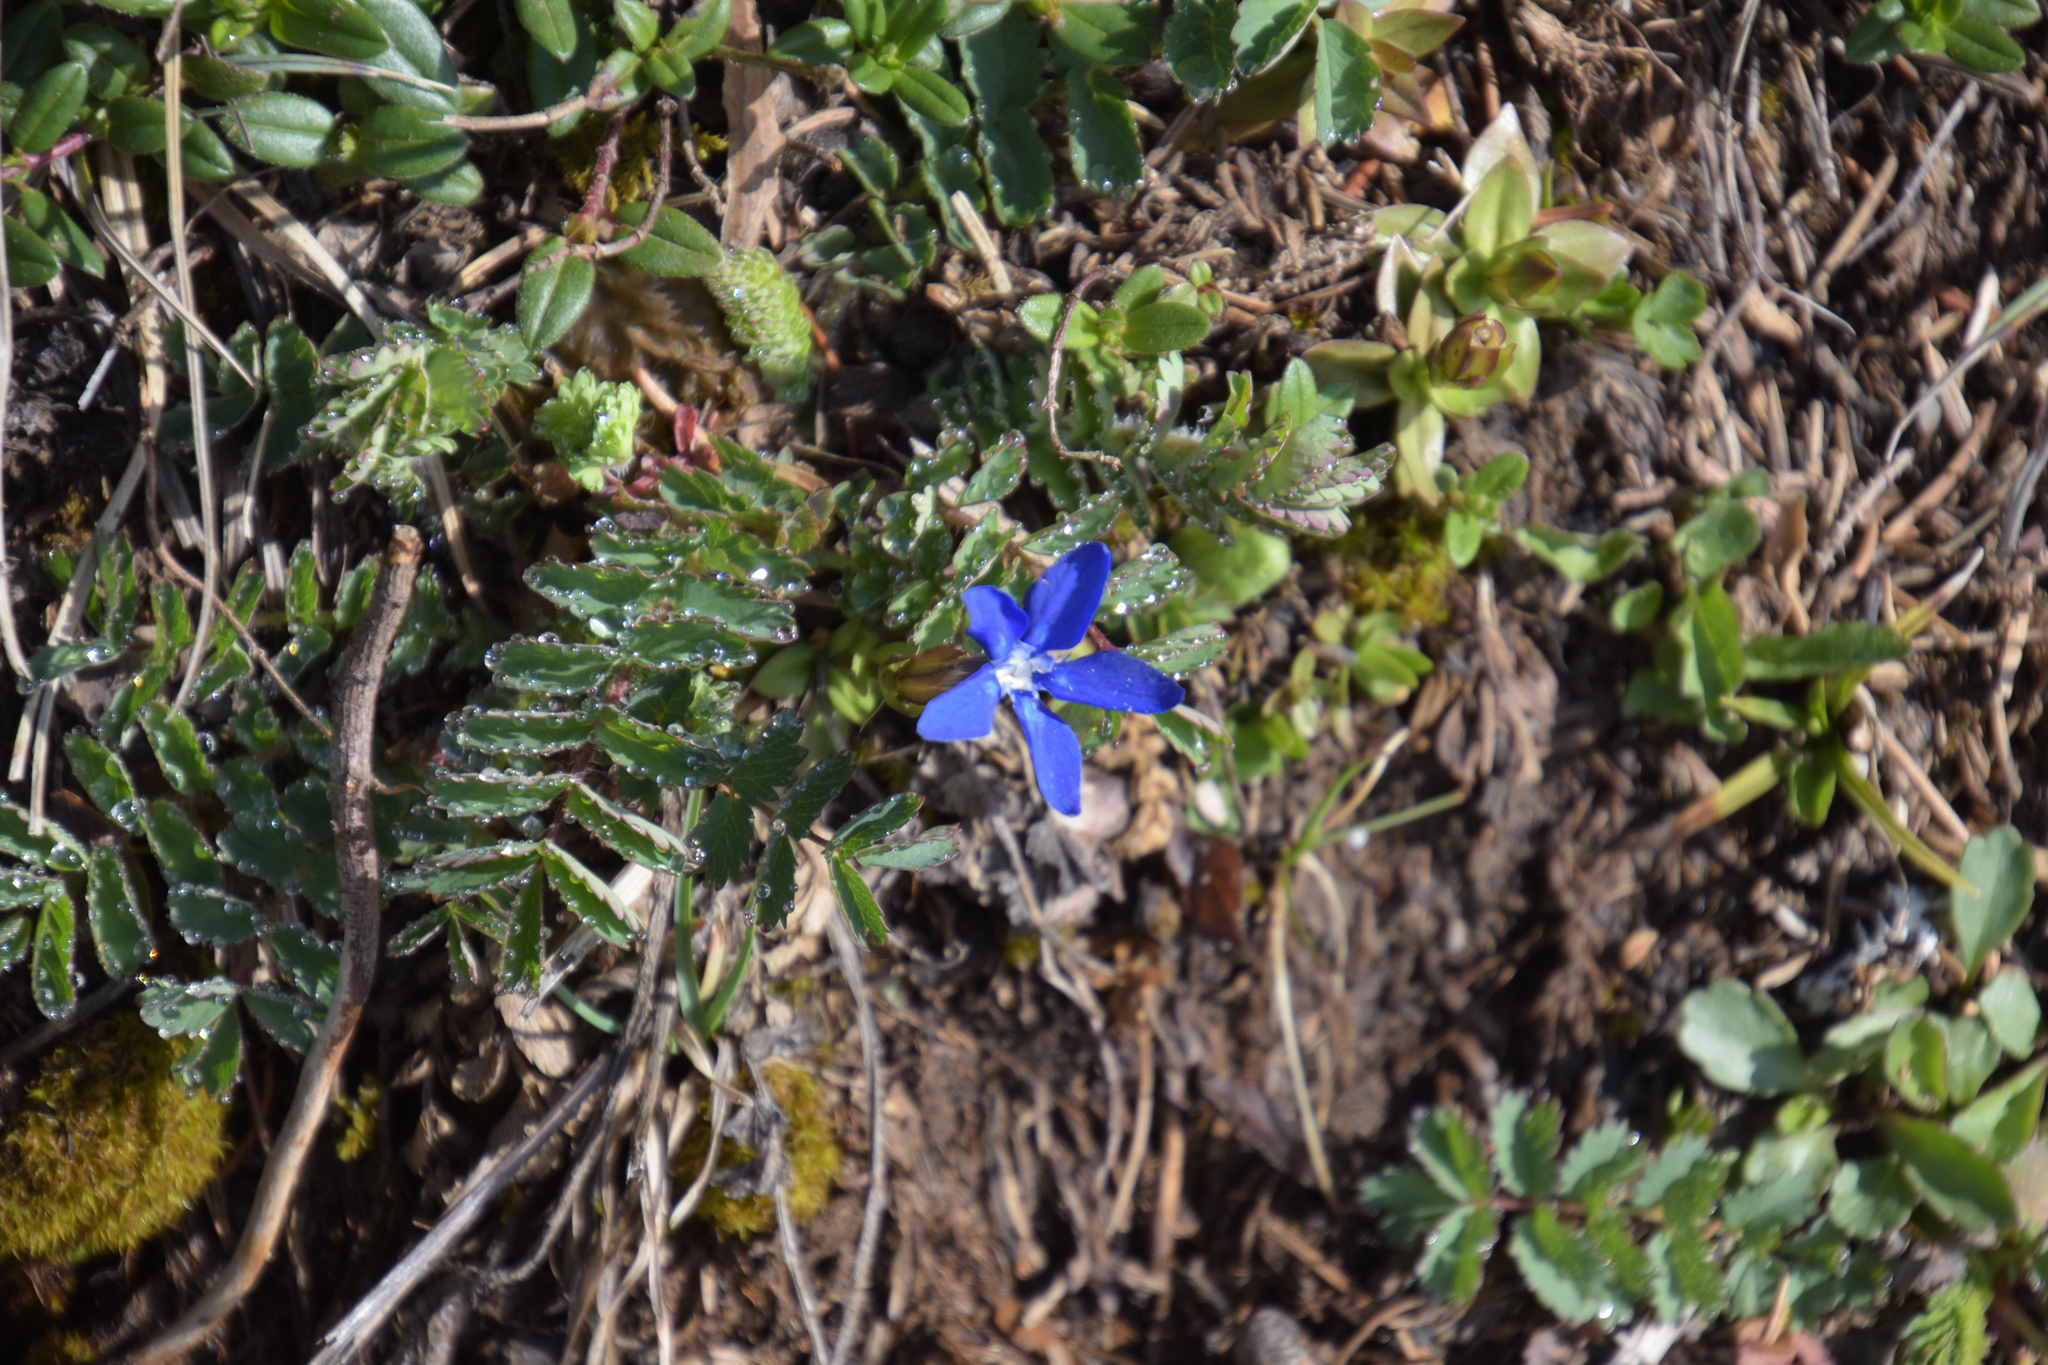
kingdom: Plantae
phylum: Tracheophyta
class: Magnoliopsida
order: Gentianales
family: Gentianaceae
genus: Gentiana
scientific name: Gentiana verna
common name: Spring gentian
